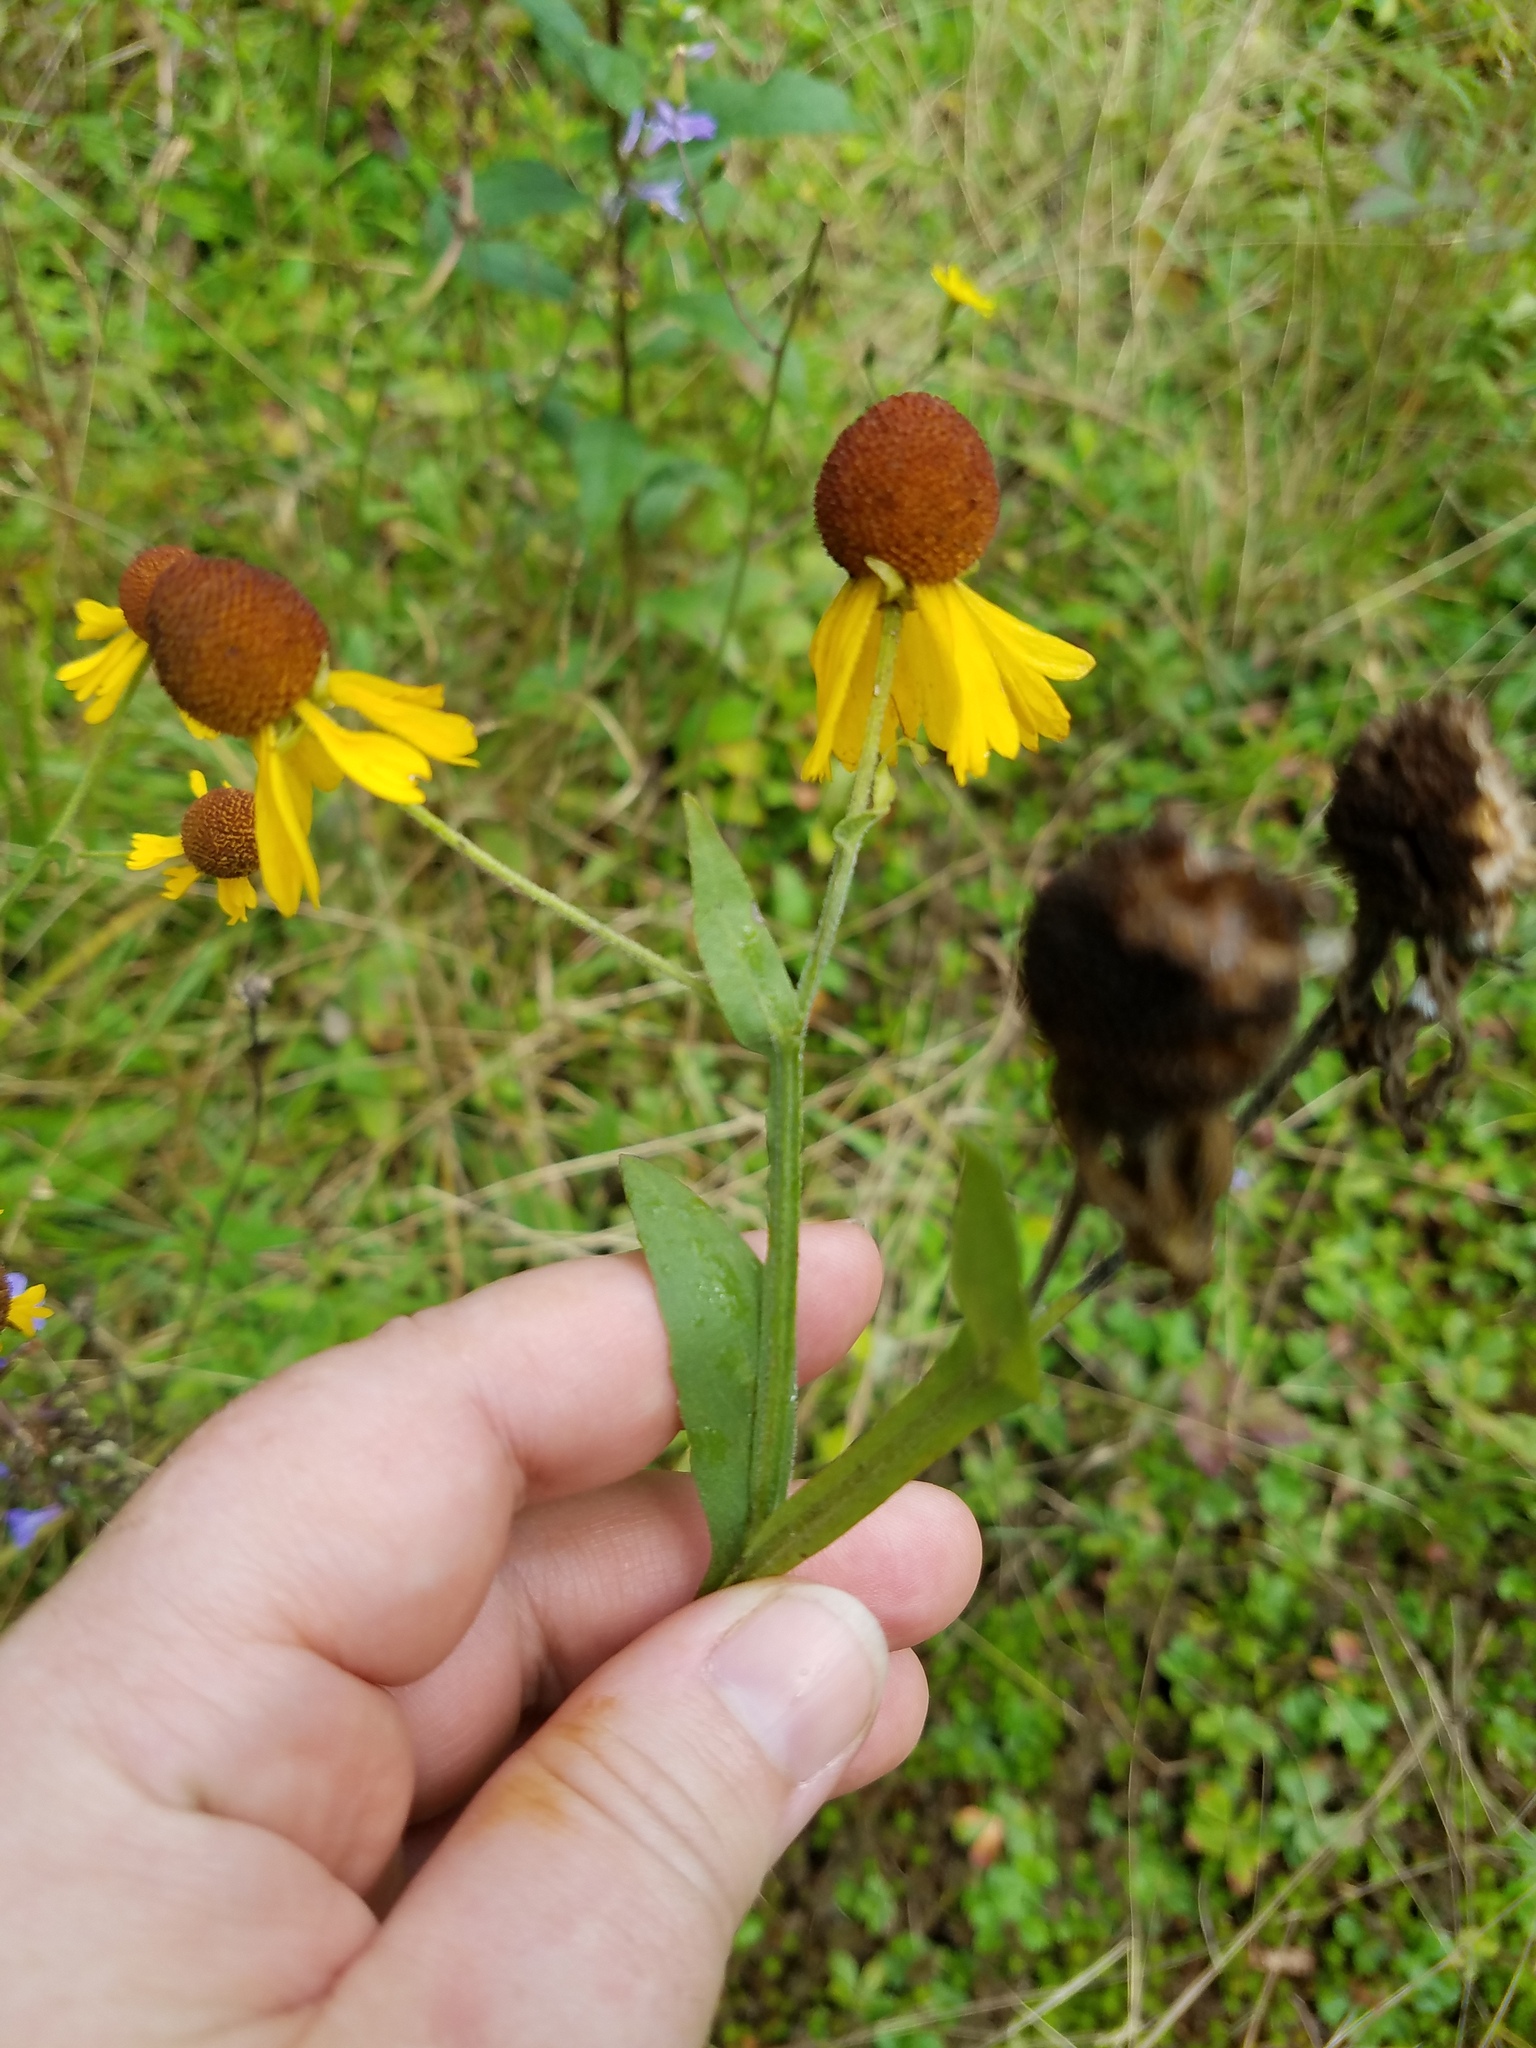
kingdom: Plantae
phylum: Tracheophyta
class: Magnoliopsida
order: Asterales
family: Asteraceae
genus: Helenium
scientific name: Helenium flexuosum
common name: Naked-flowered sneezeweed
